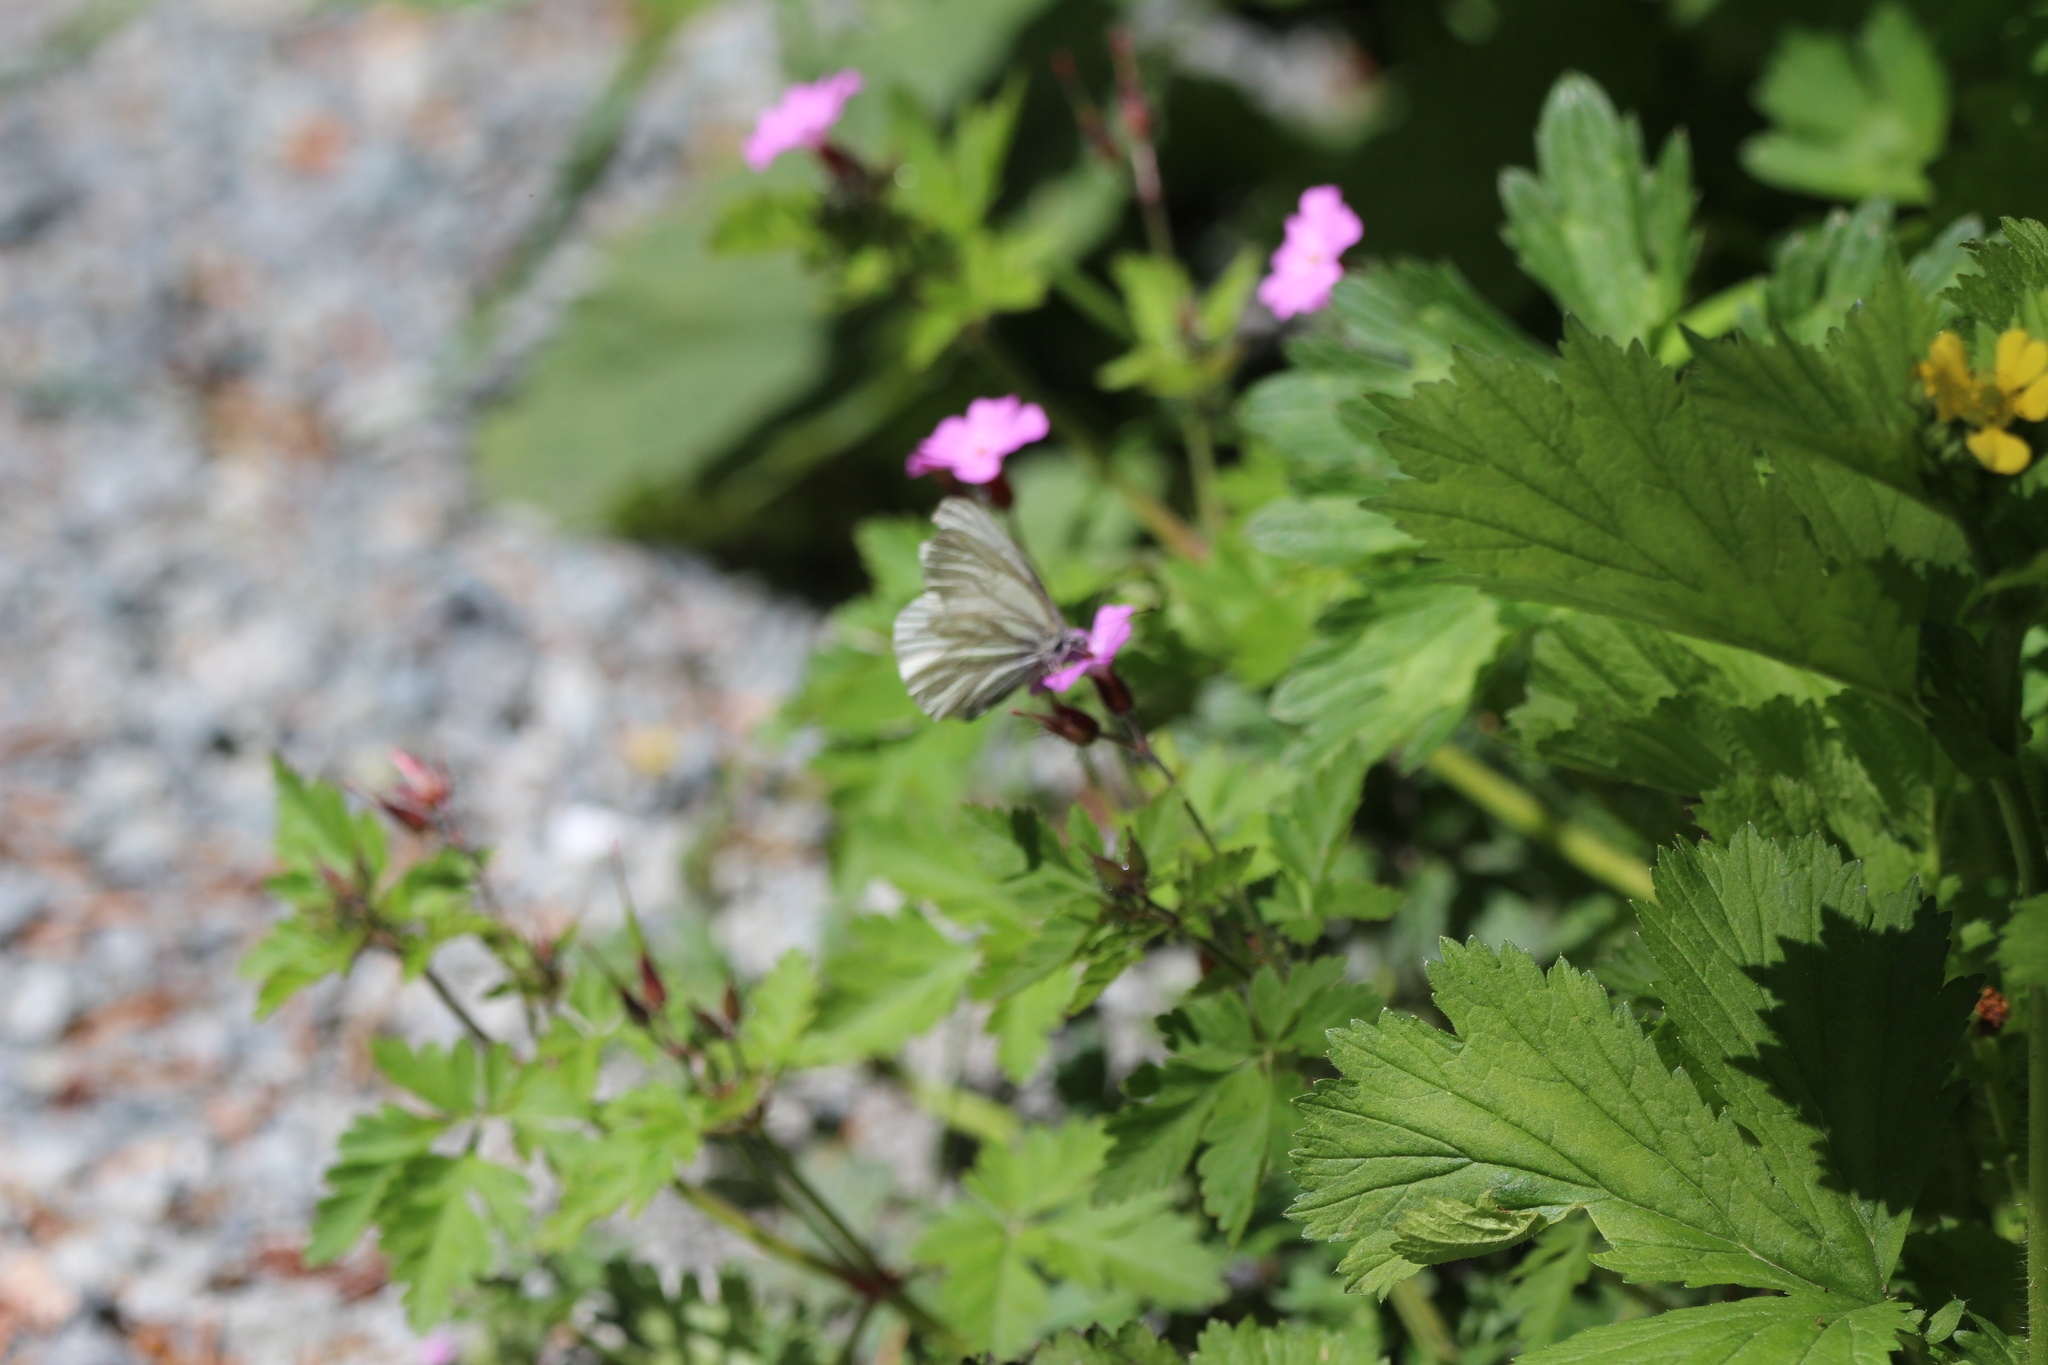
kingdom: Animalia
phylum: Arthropoda
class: Insecta
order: Lepidoptera
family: Pieridae
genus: Pieris
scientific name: Pieris marginalis
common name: Margined white
